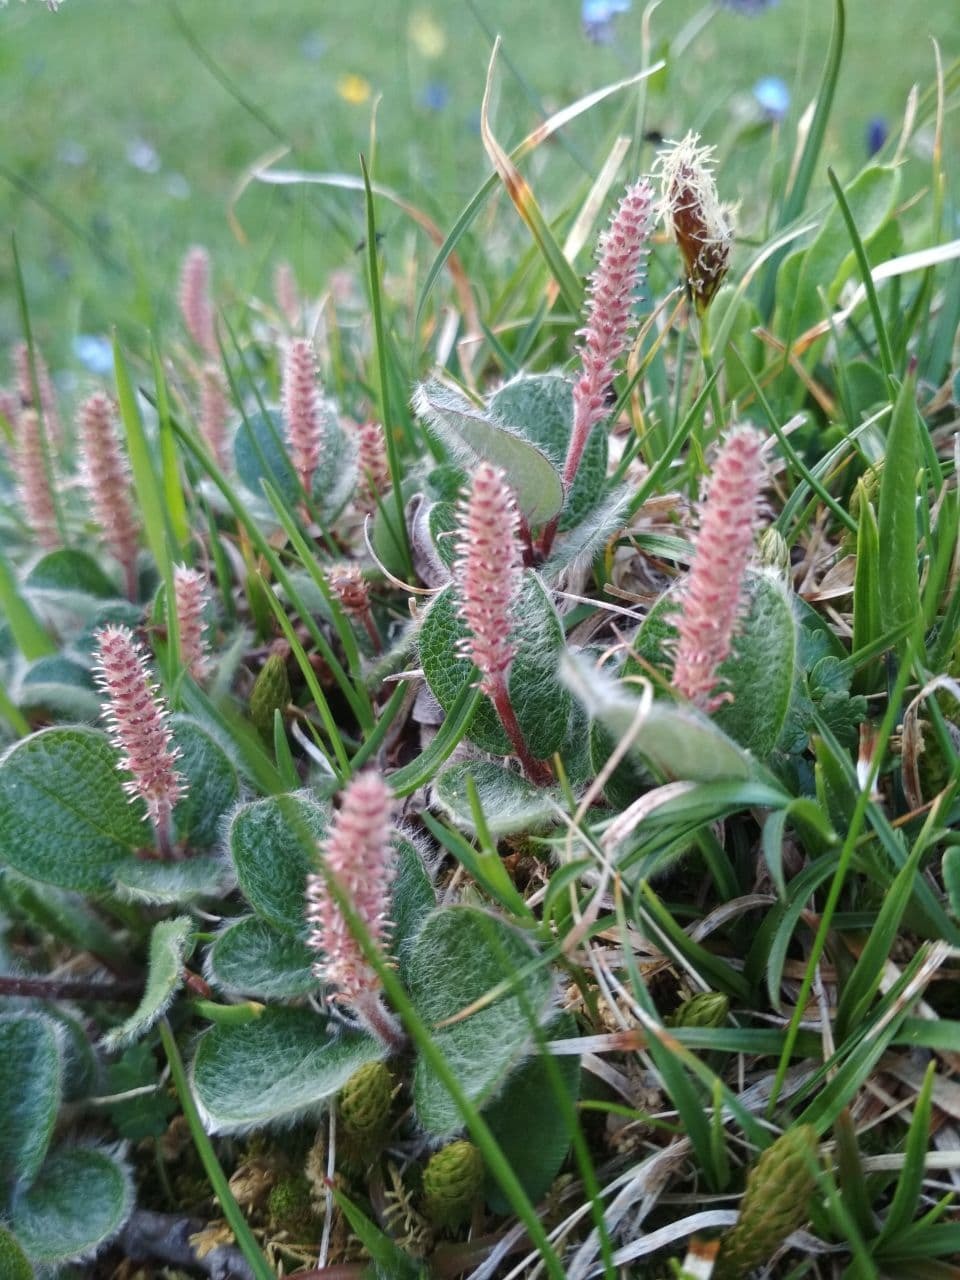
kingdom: Plantae
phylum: Tracheophyta
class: Magnoliopsida
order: Malpighiales
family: Salicaceae
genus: Salix
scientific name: Salix reticulata
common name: Net-leaved willow
